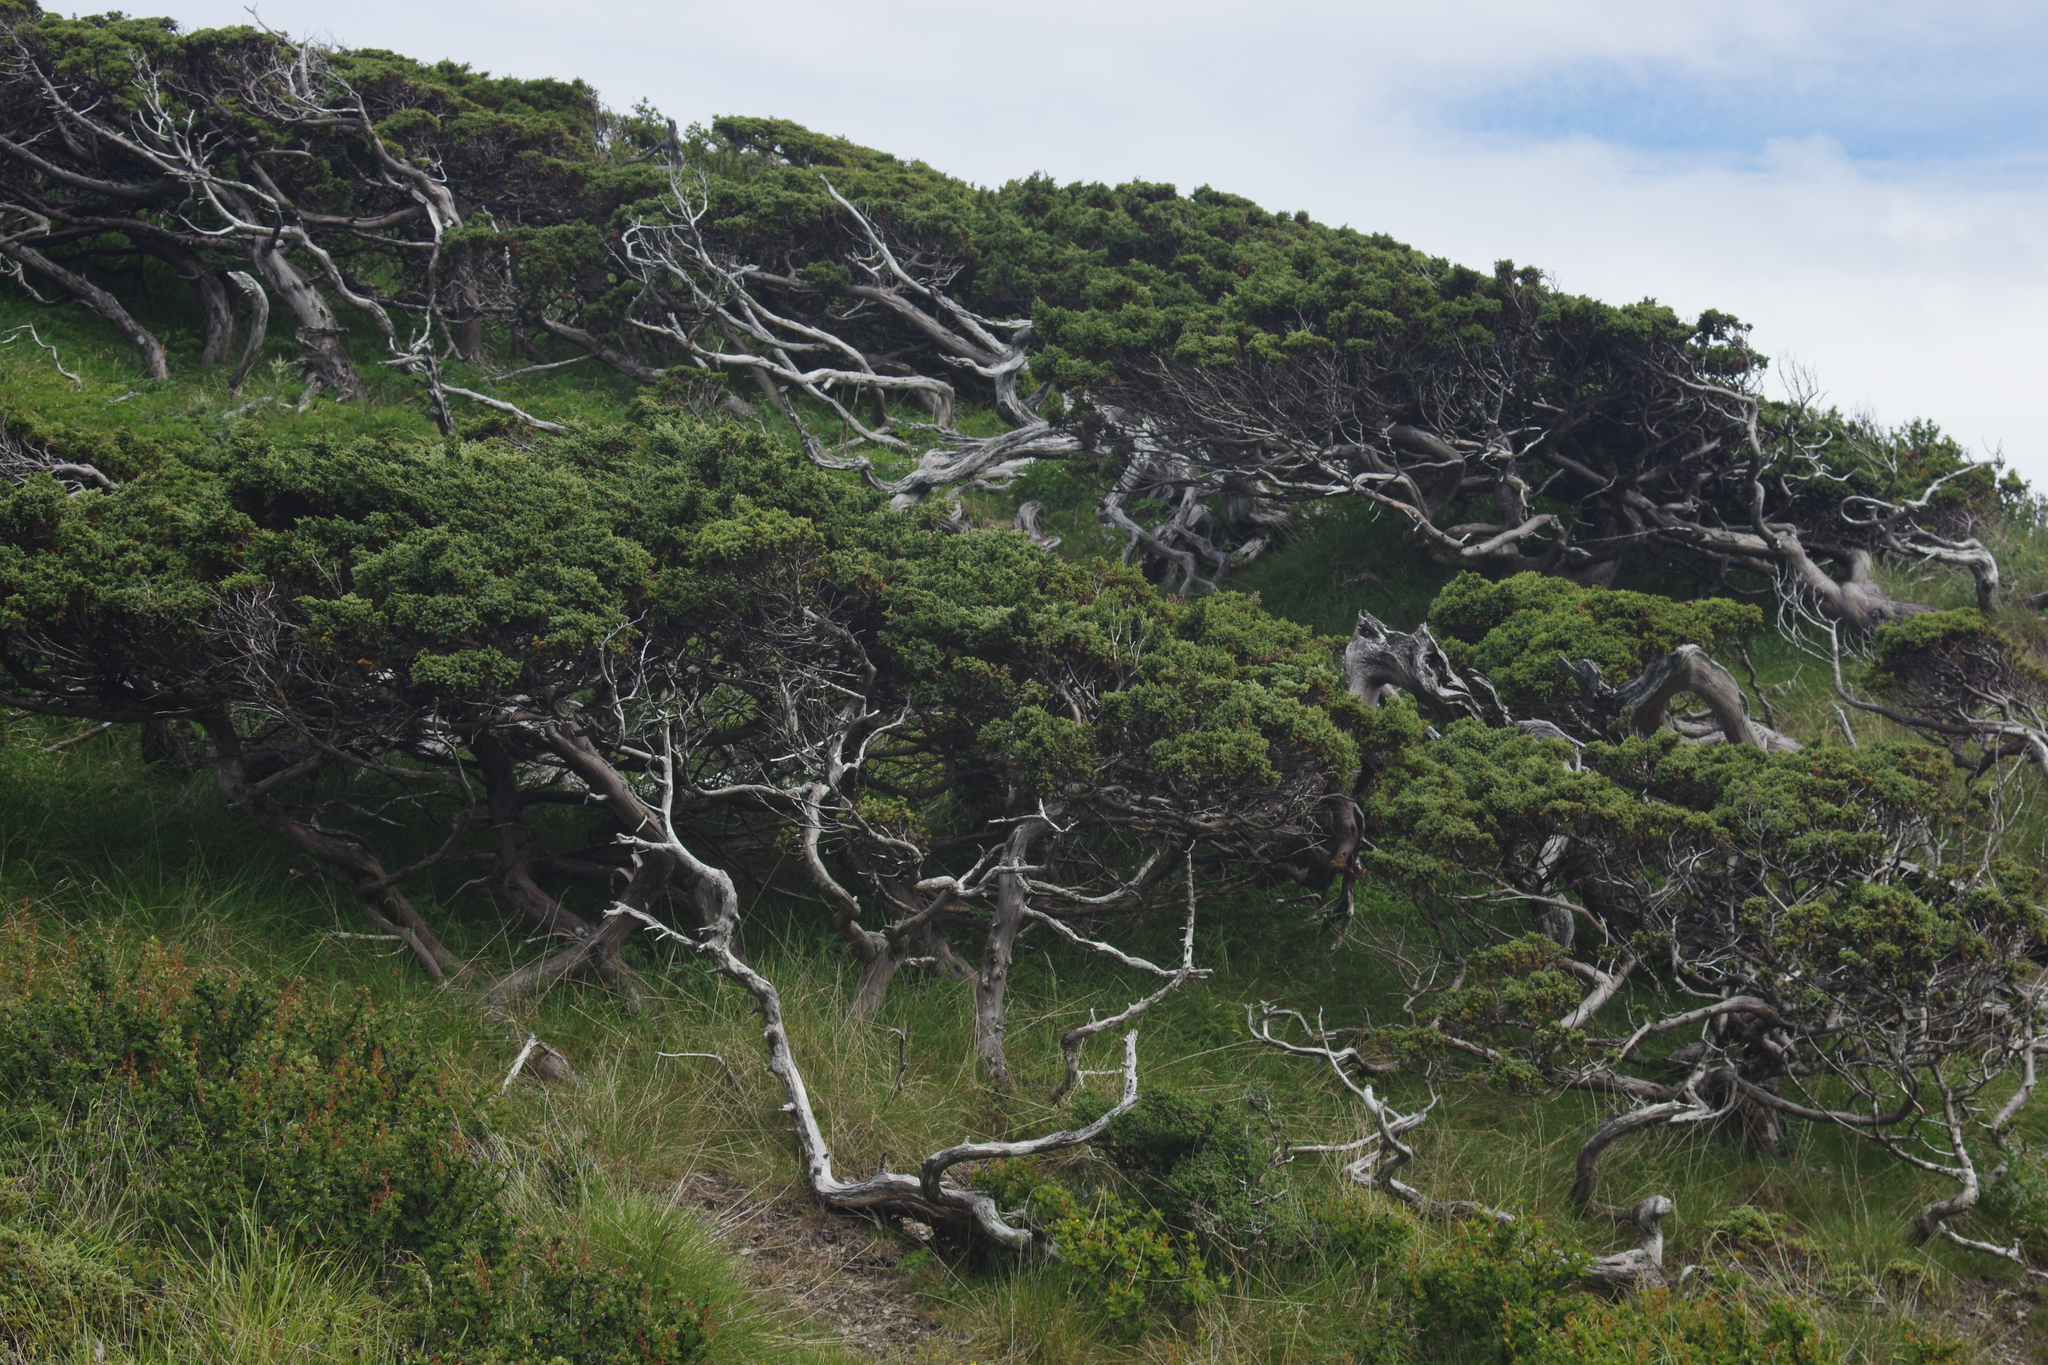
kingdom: Plantae
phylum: Tracheophyta
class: Pinopsida
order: Pinales
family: Cupressaceae
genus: Juniperus
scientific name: Juniperus squamata
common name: Flaky juniper
